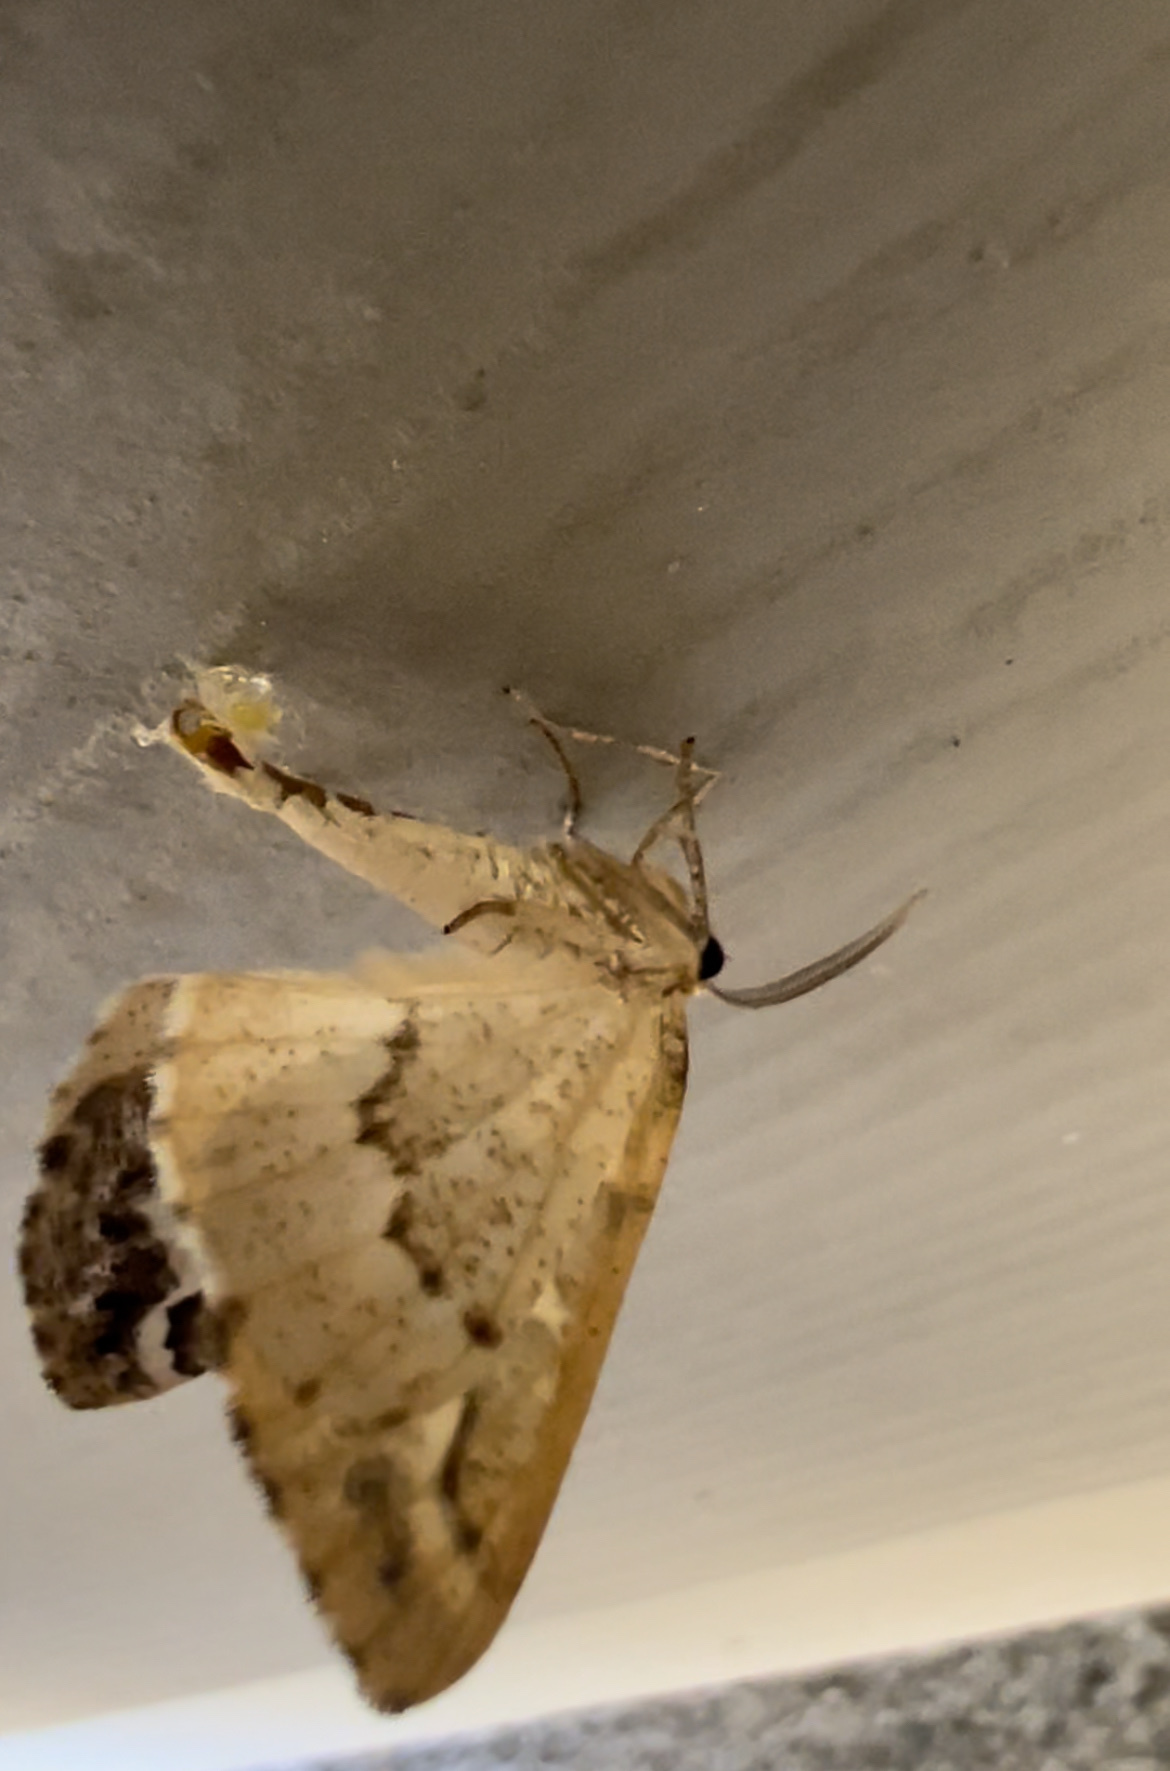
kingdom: Animalia
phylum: Arthropoda
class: Insecta
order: Lepidoptera
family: Geometridae
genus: Caripeta
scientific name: Caripeta divisata
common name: Gray spruce looper
